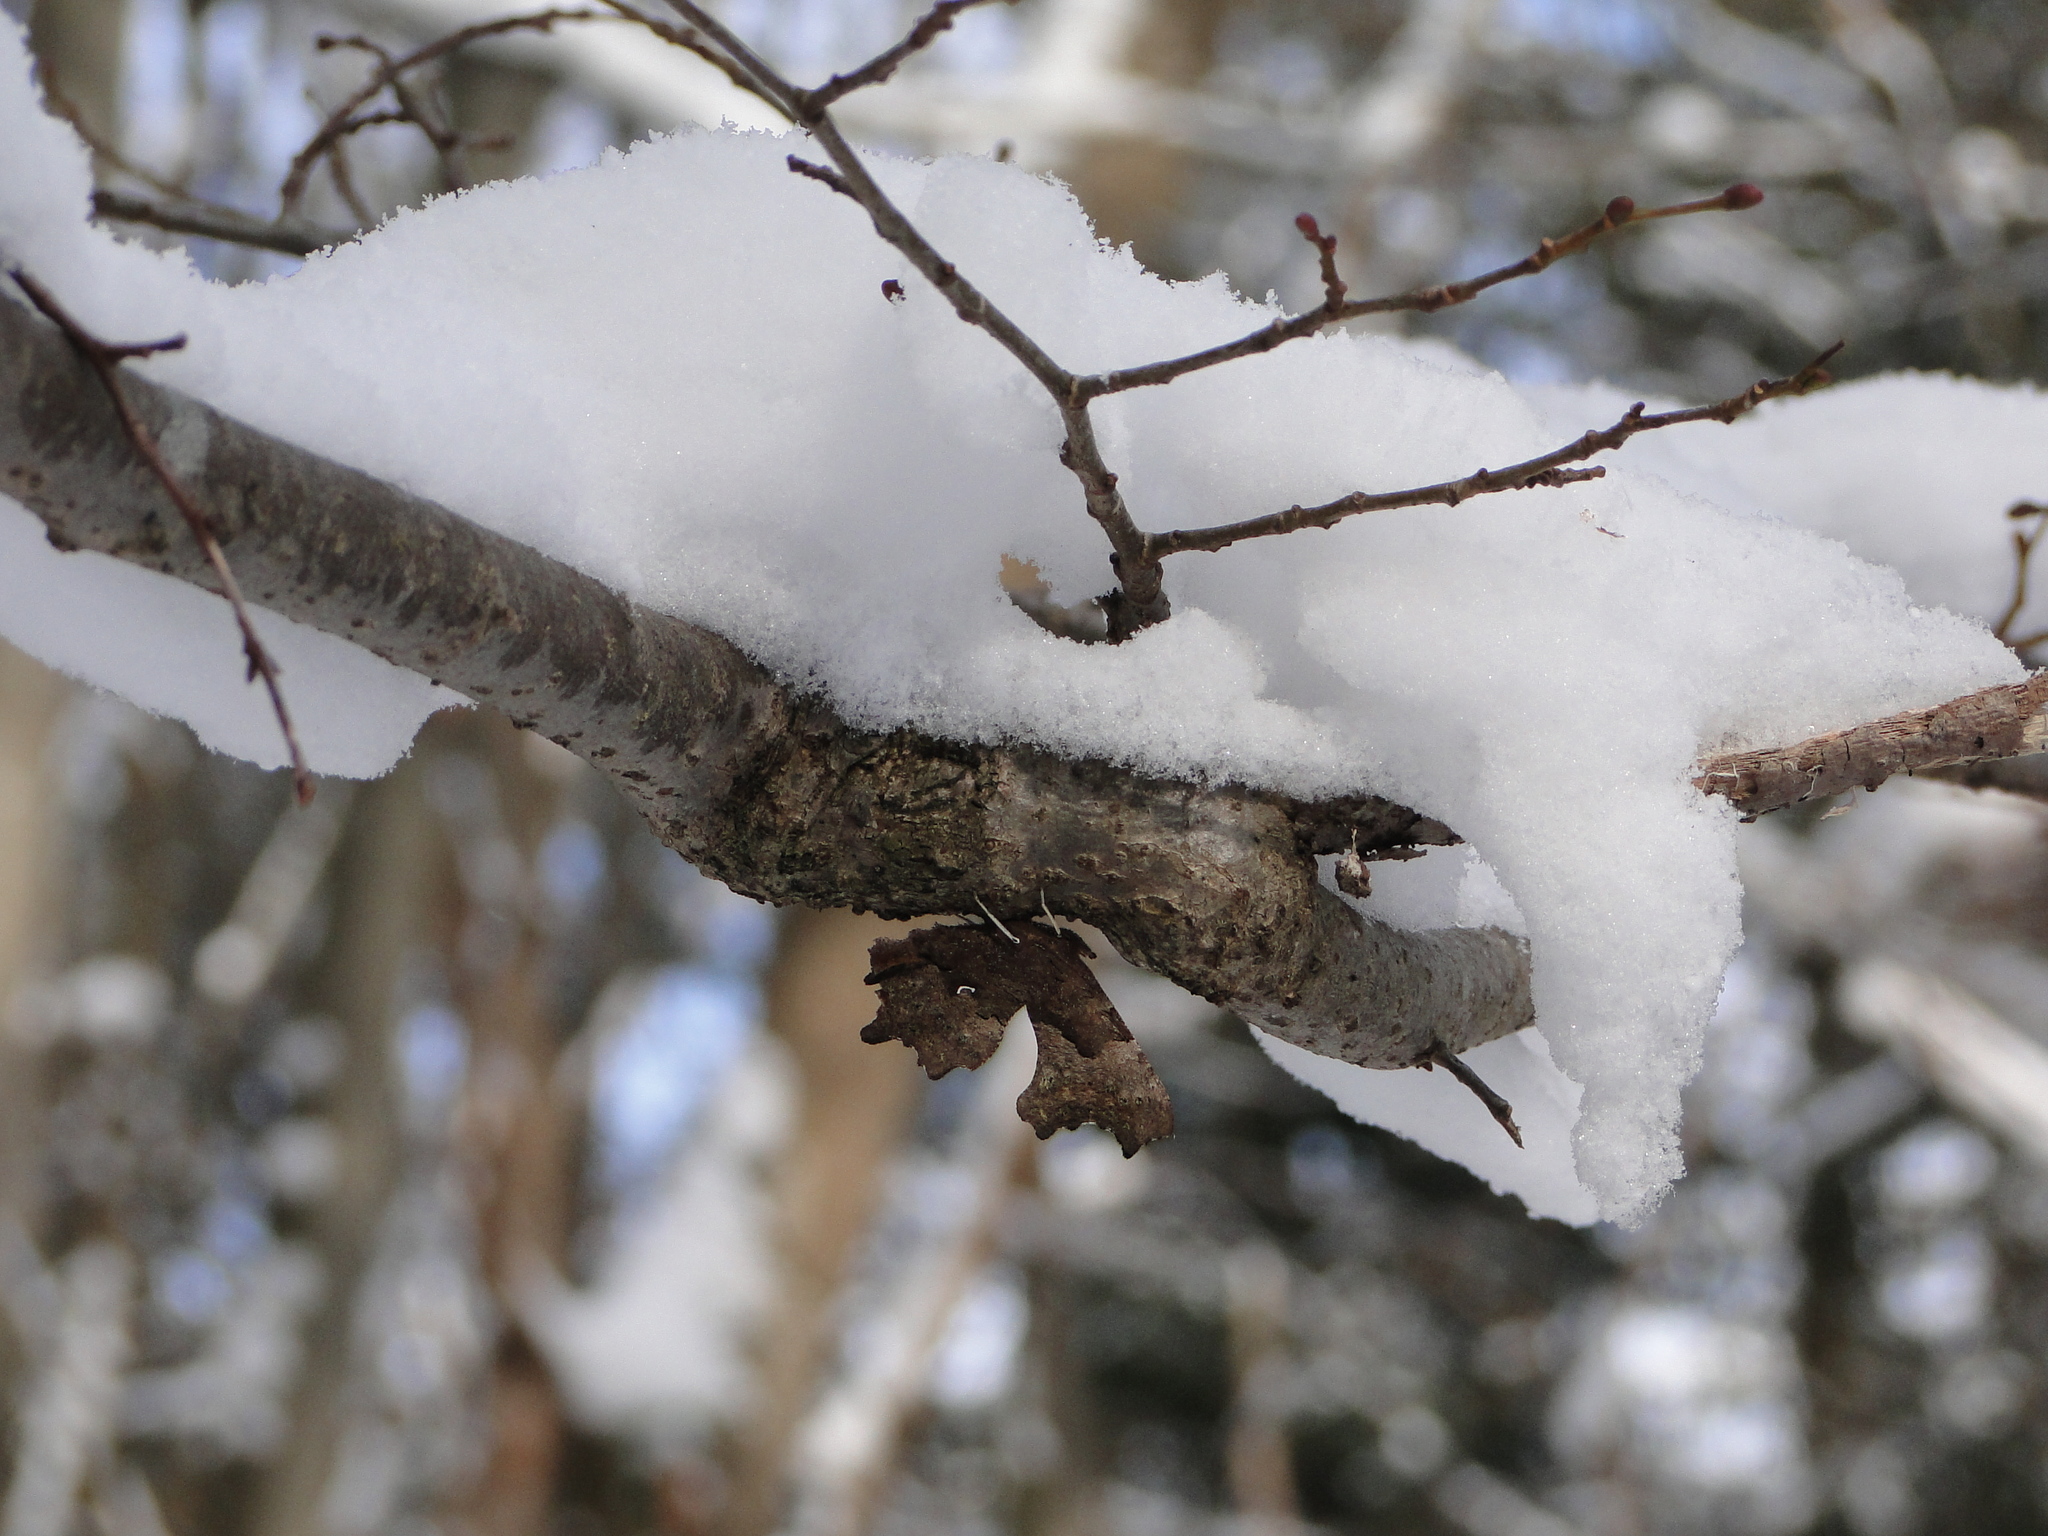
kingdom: Animalia
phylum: Arthropoda
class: Insecta
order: Lepidoptera
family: Nymphalidae
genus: Polygonia
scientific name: Polygonia c-album
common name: Comma
